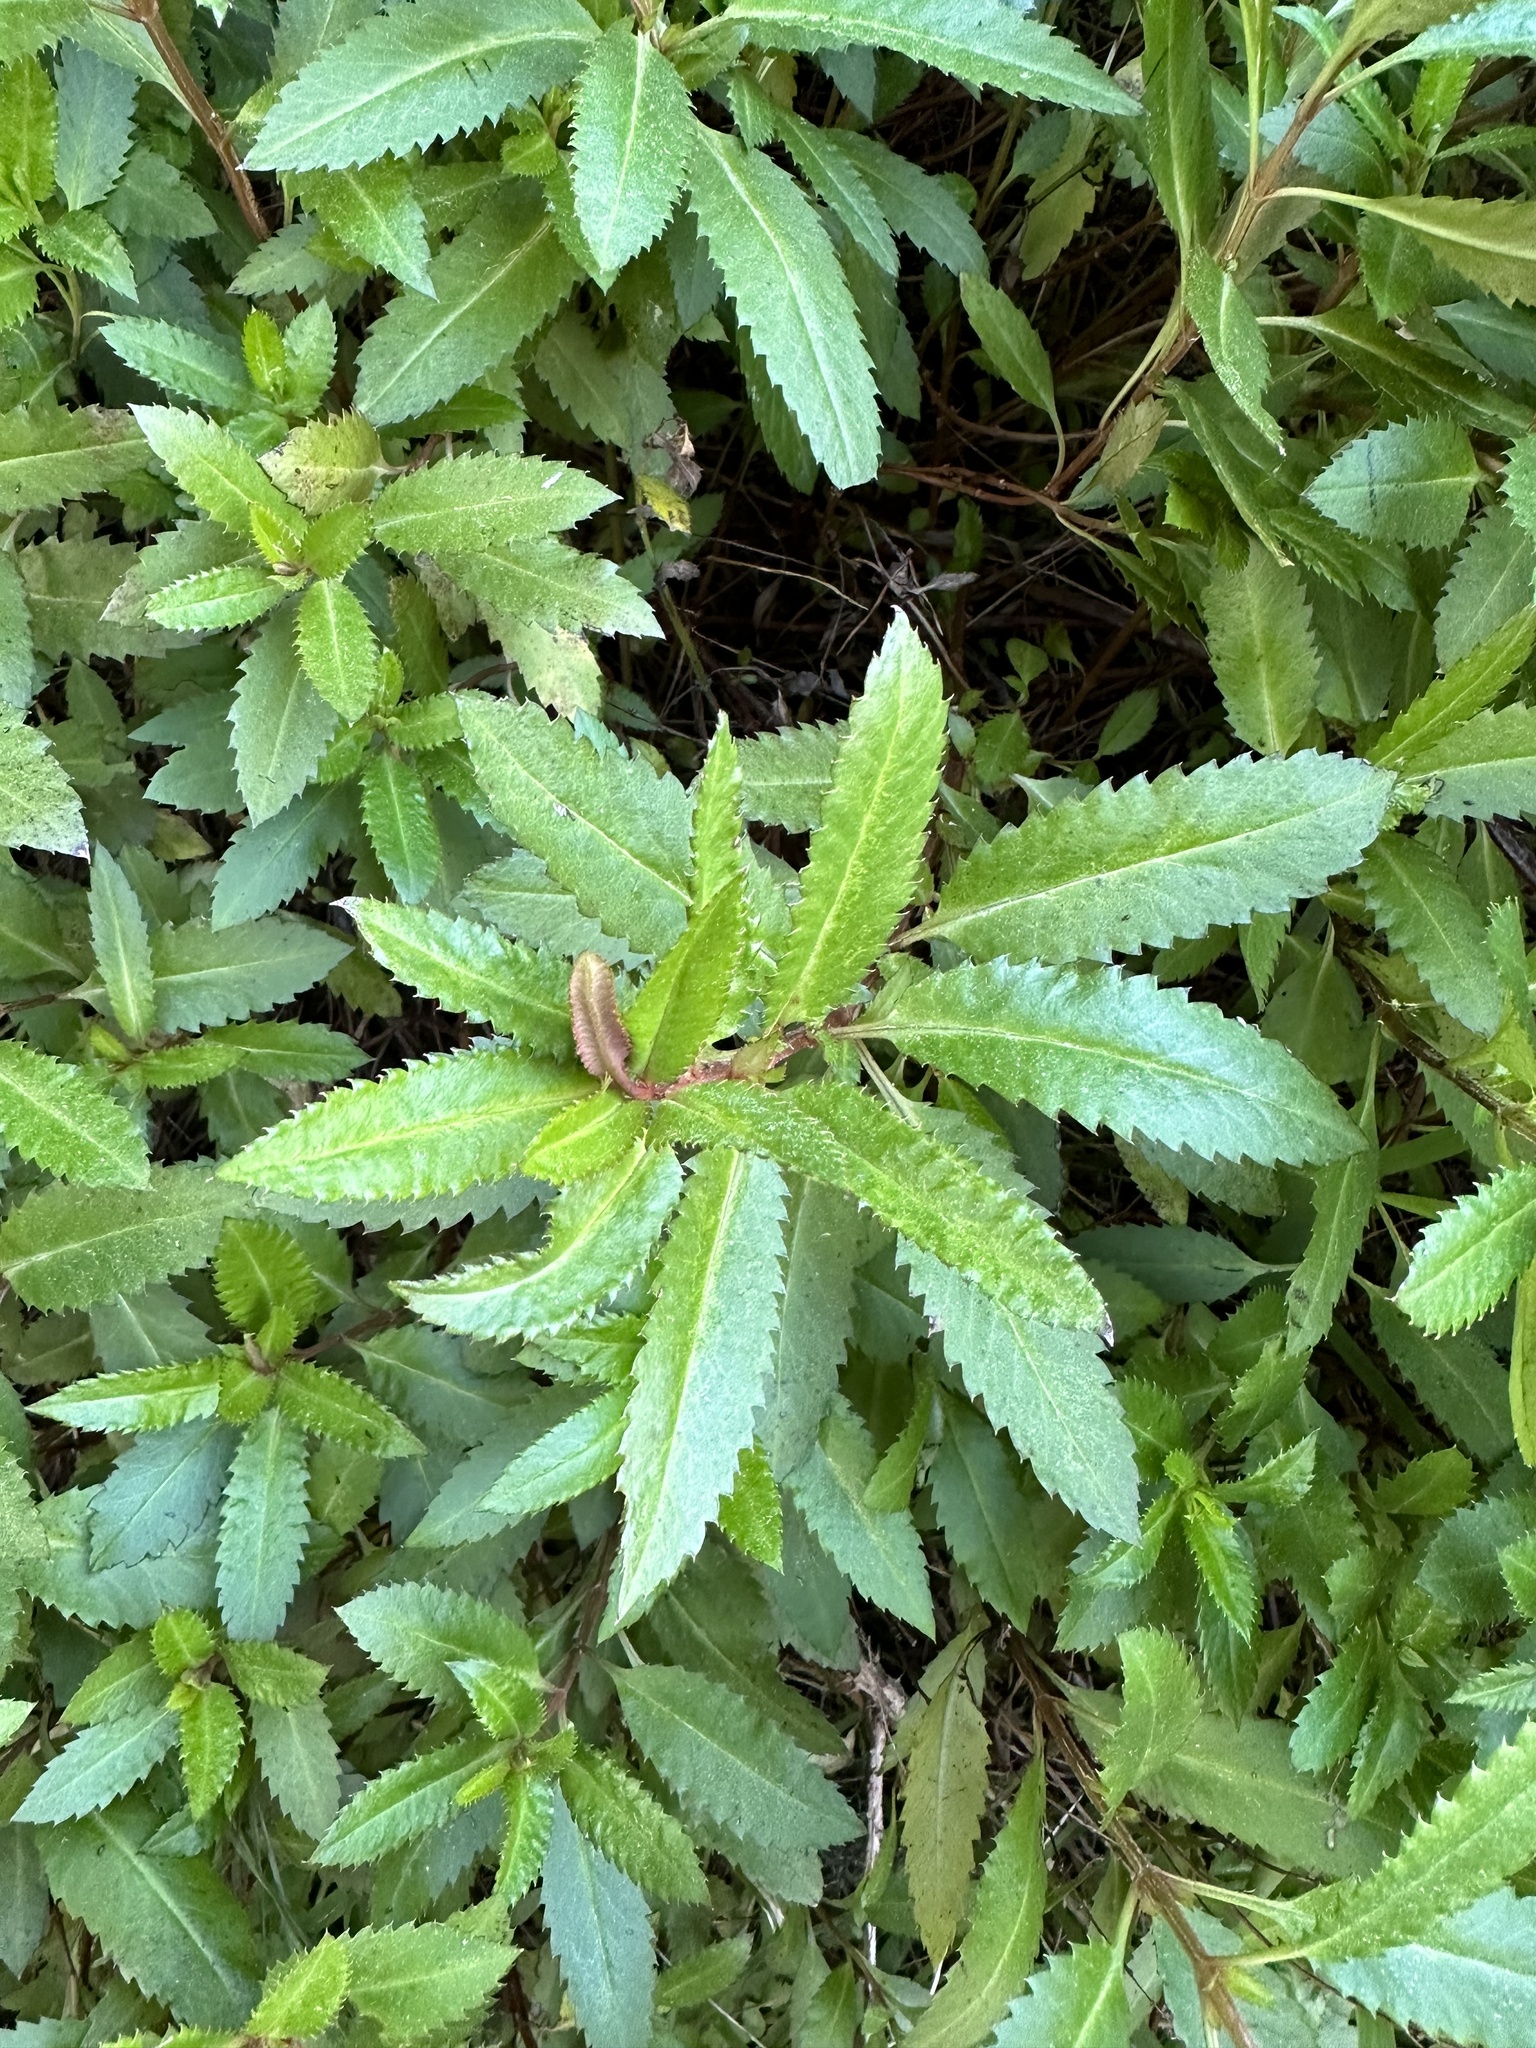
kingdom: Plantae
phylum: Tracheophyta
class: Magnoliopsida
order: Saxifragales
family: Haloragaceae
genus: Haloragis
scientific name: Haloragis erecta
